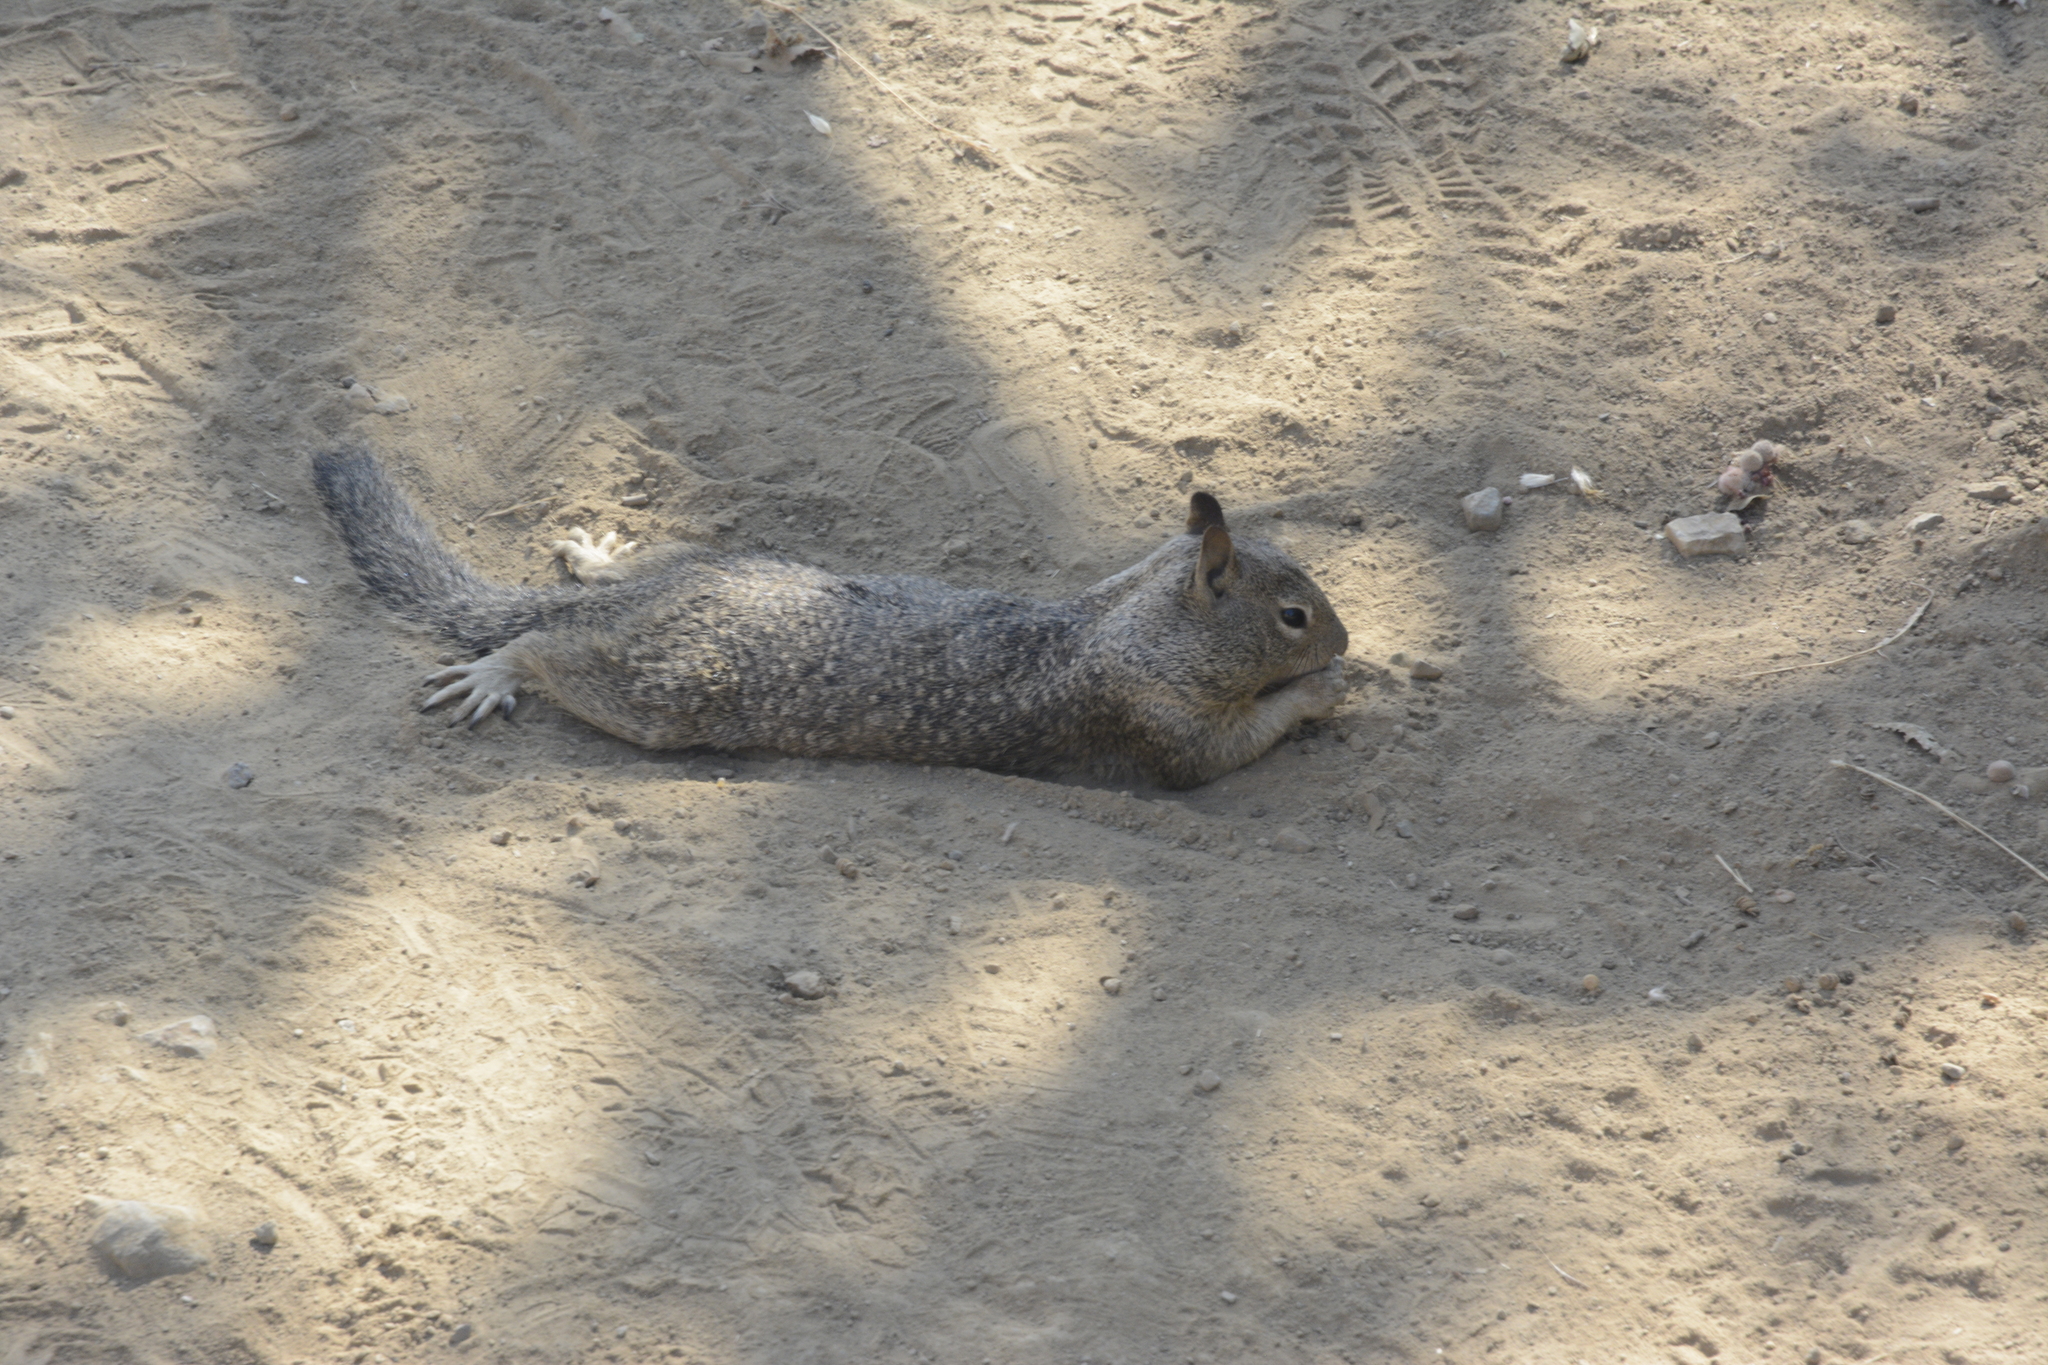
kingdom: Animalia
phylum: Chordata
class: Mammalia
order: Rodentia
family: Sciuridae
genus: Otospermophilus
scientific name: Otospermophilus beecheyi
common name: California ground squirrel
